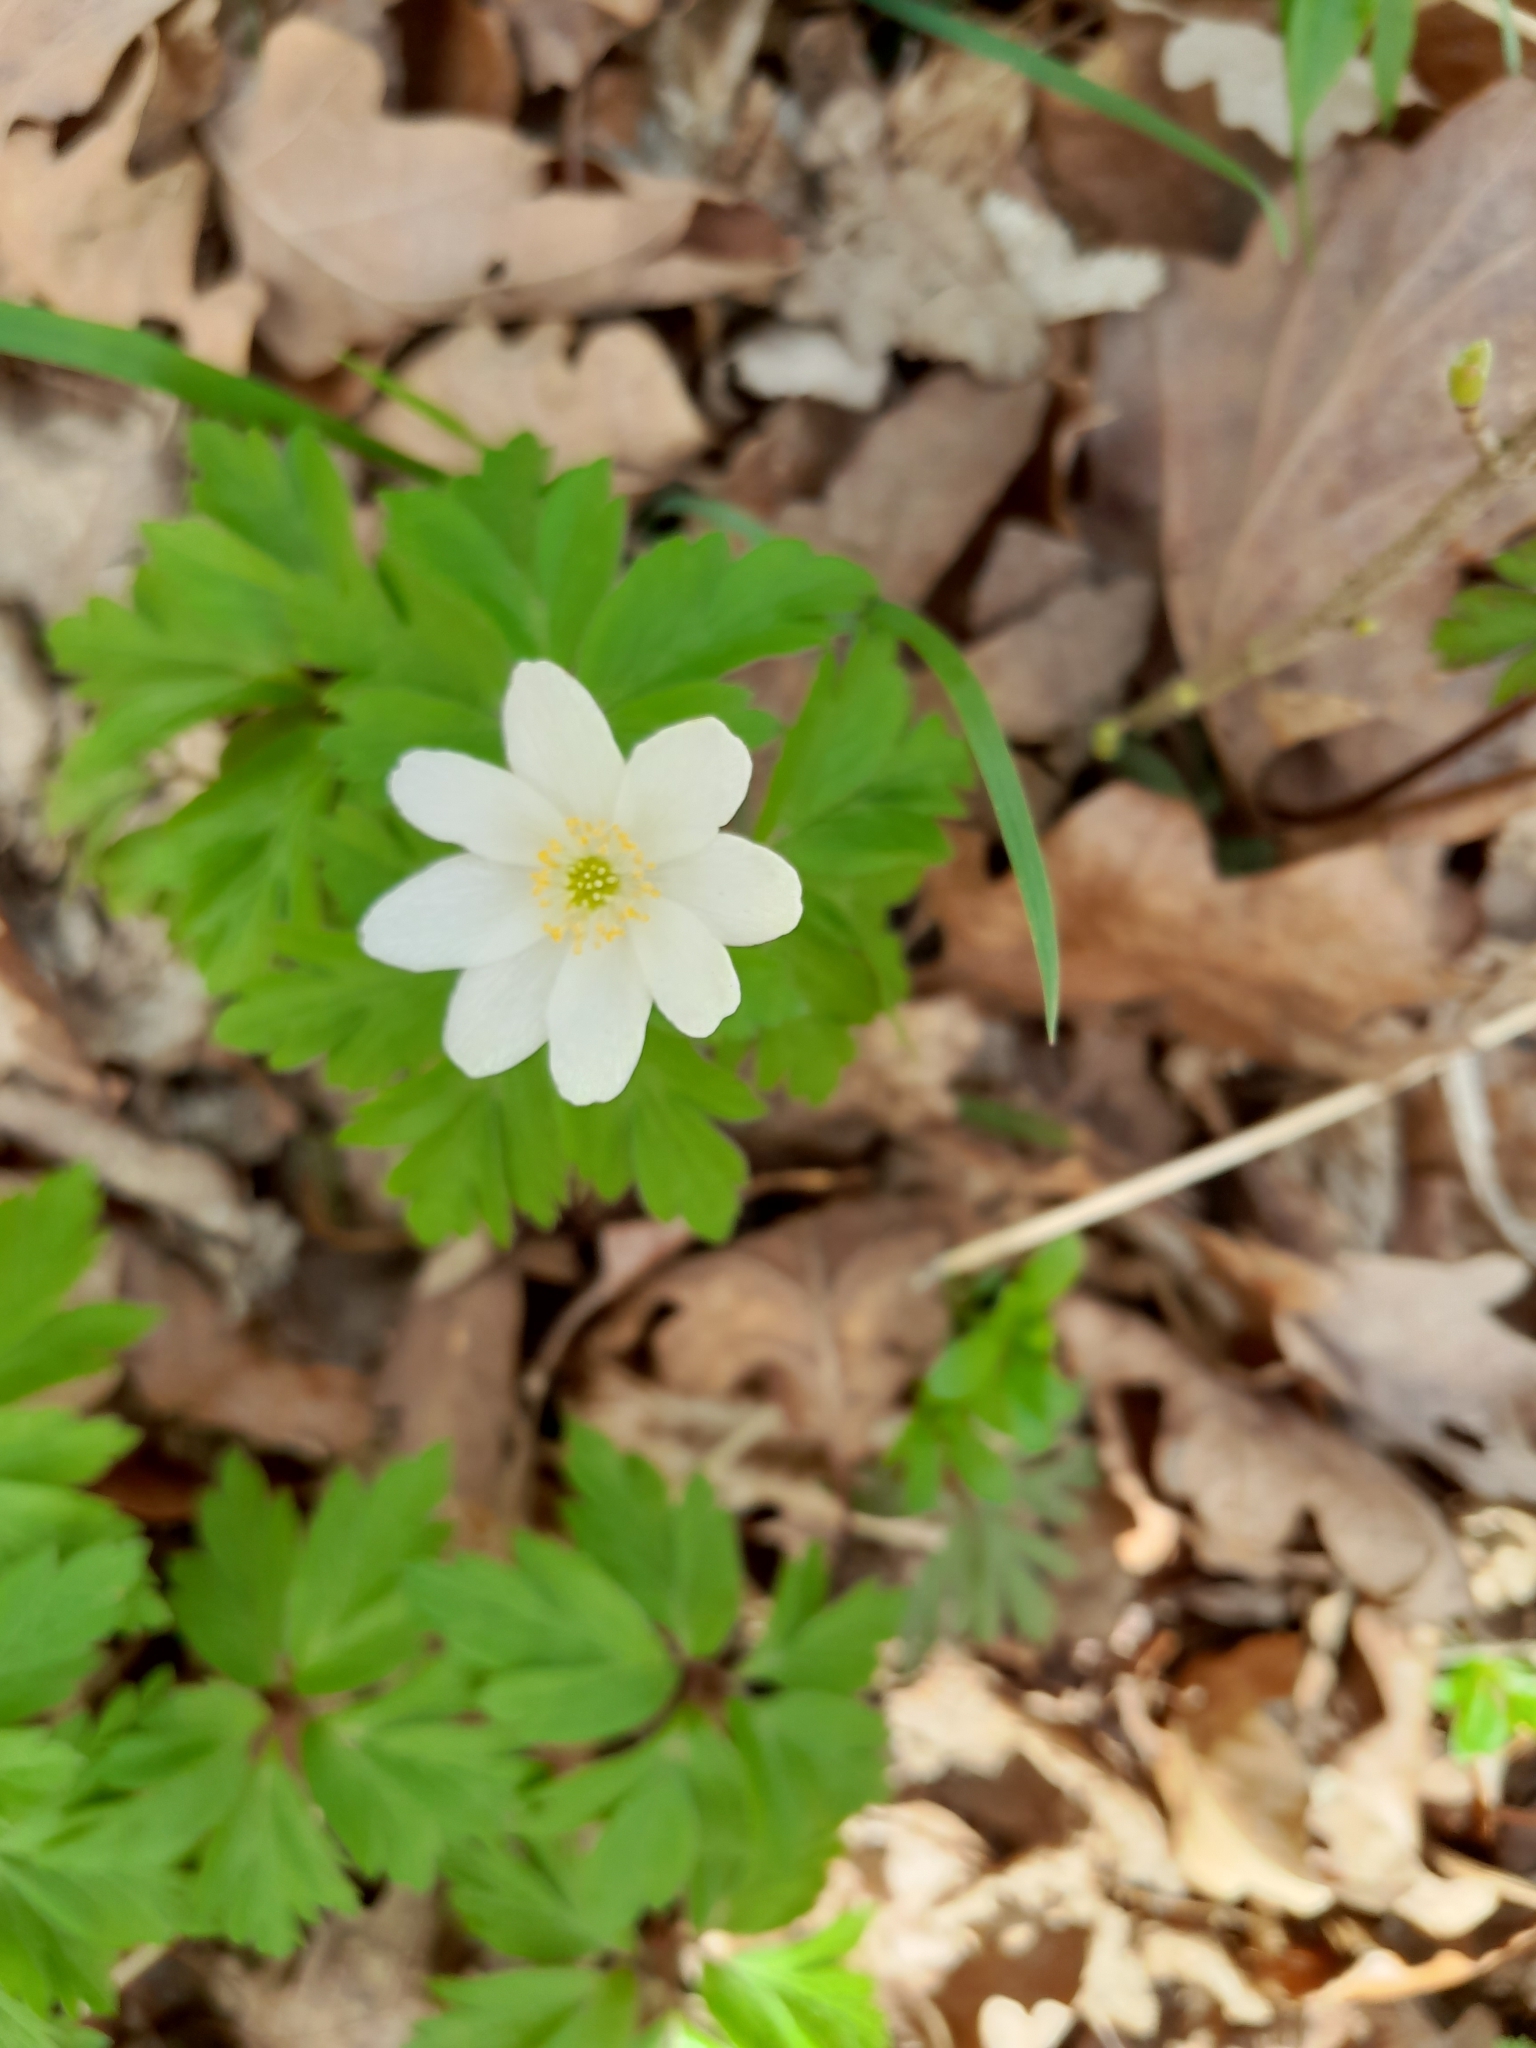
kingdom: Plantae
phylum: Tracheophyta
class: Magnoliopsida
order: Ranunculales
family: Ranunculaceae
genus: Anemone
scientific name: Anemone nemorosa
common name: Wood anemone
